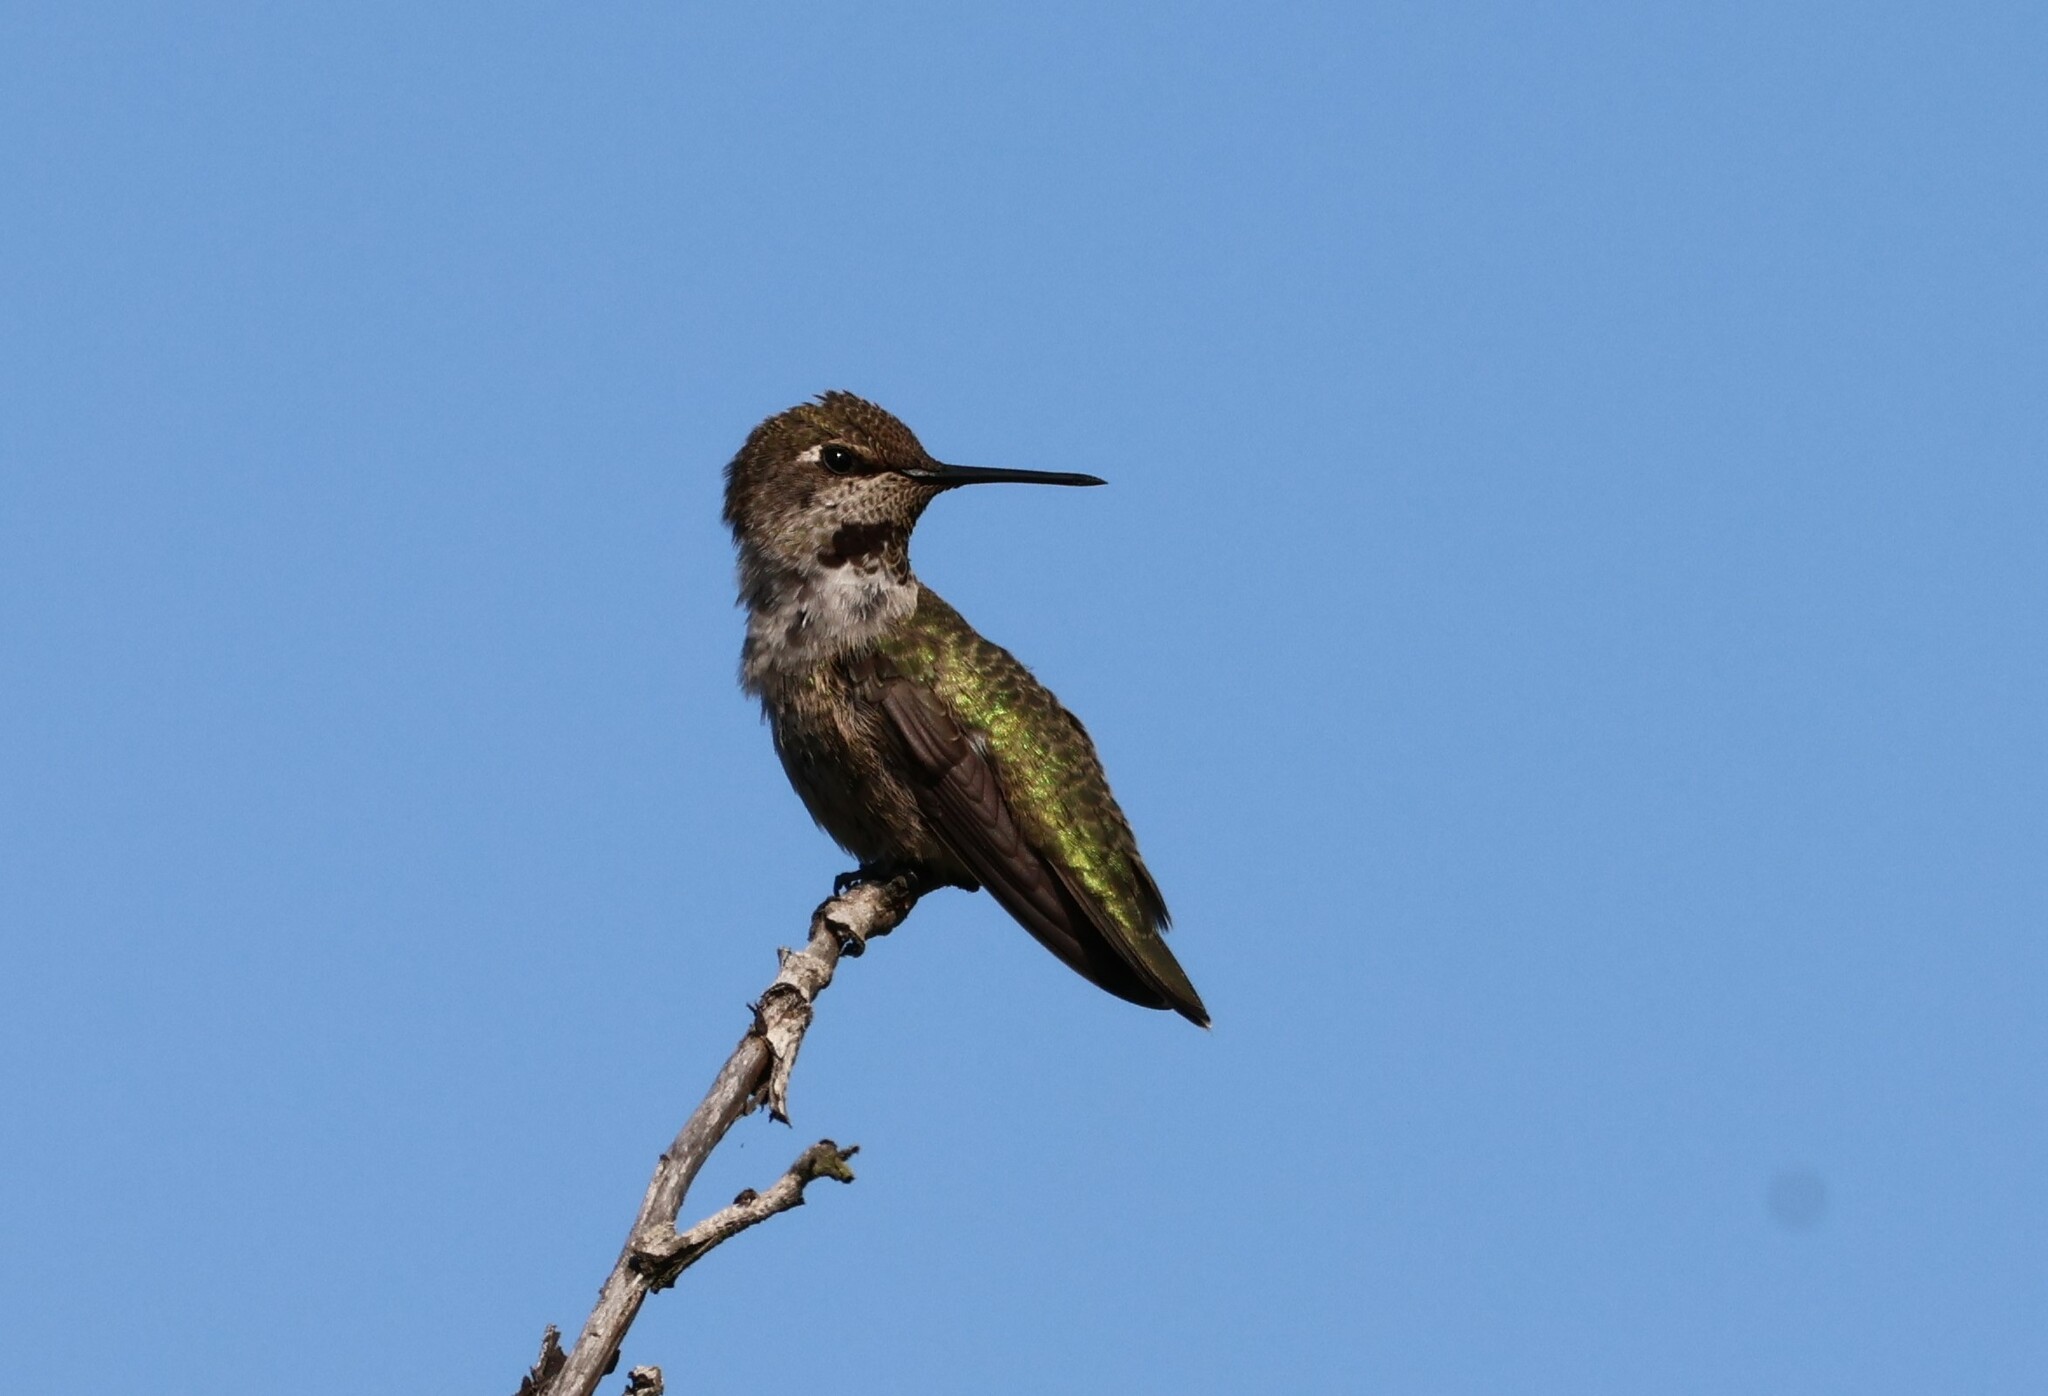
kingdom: Animalia
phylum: Chordata
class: Aves
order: Apodiformes
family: Trochilidae
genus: Calypte
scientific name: Calypte anna
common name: Anna's hummingbird
